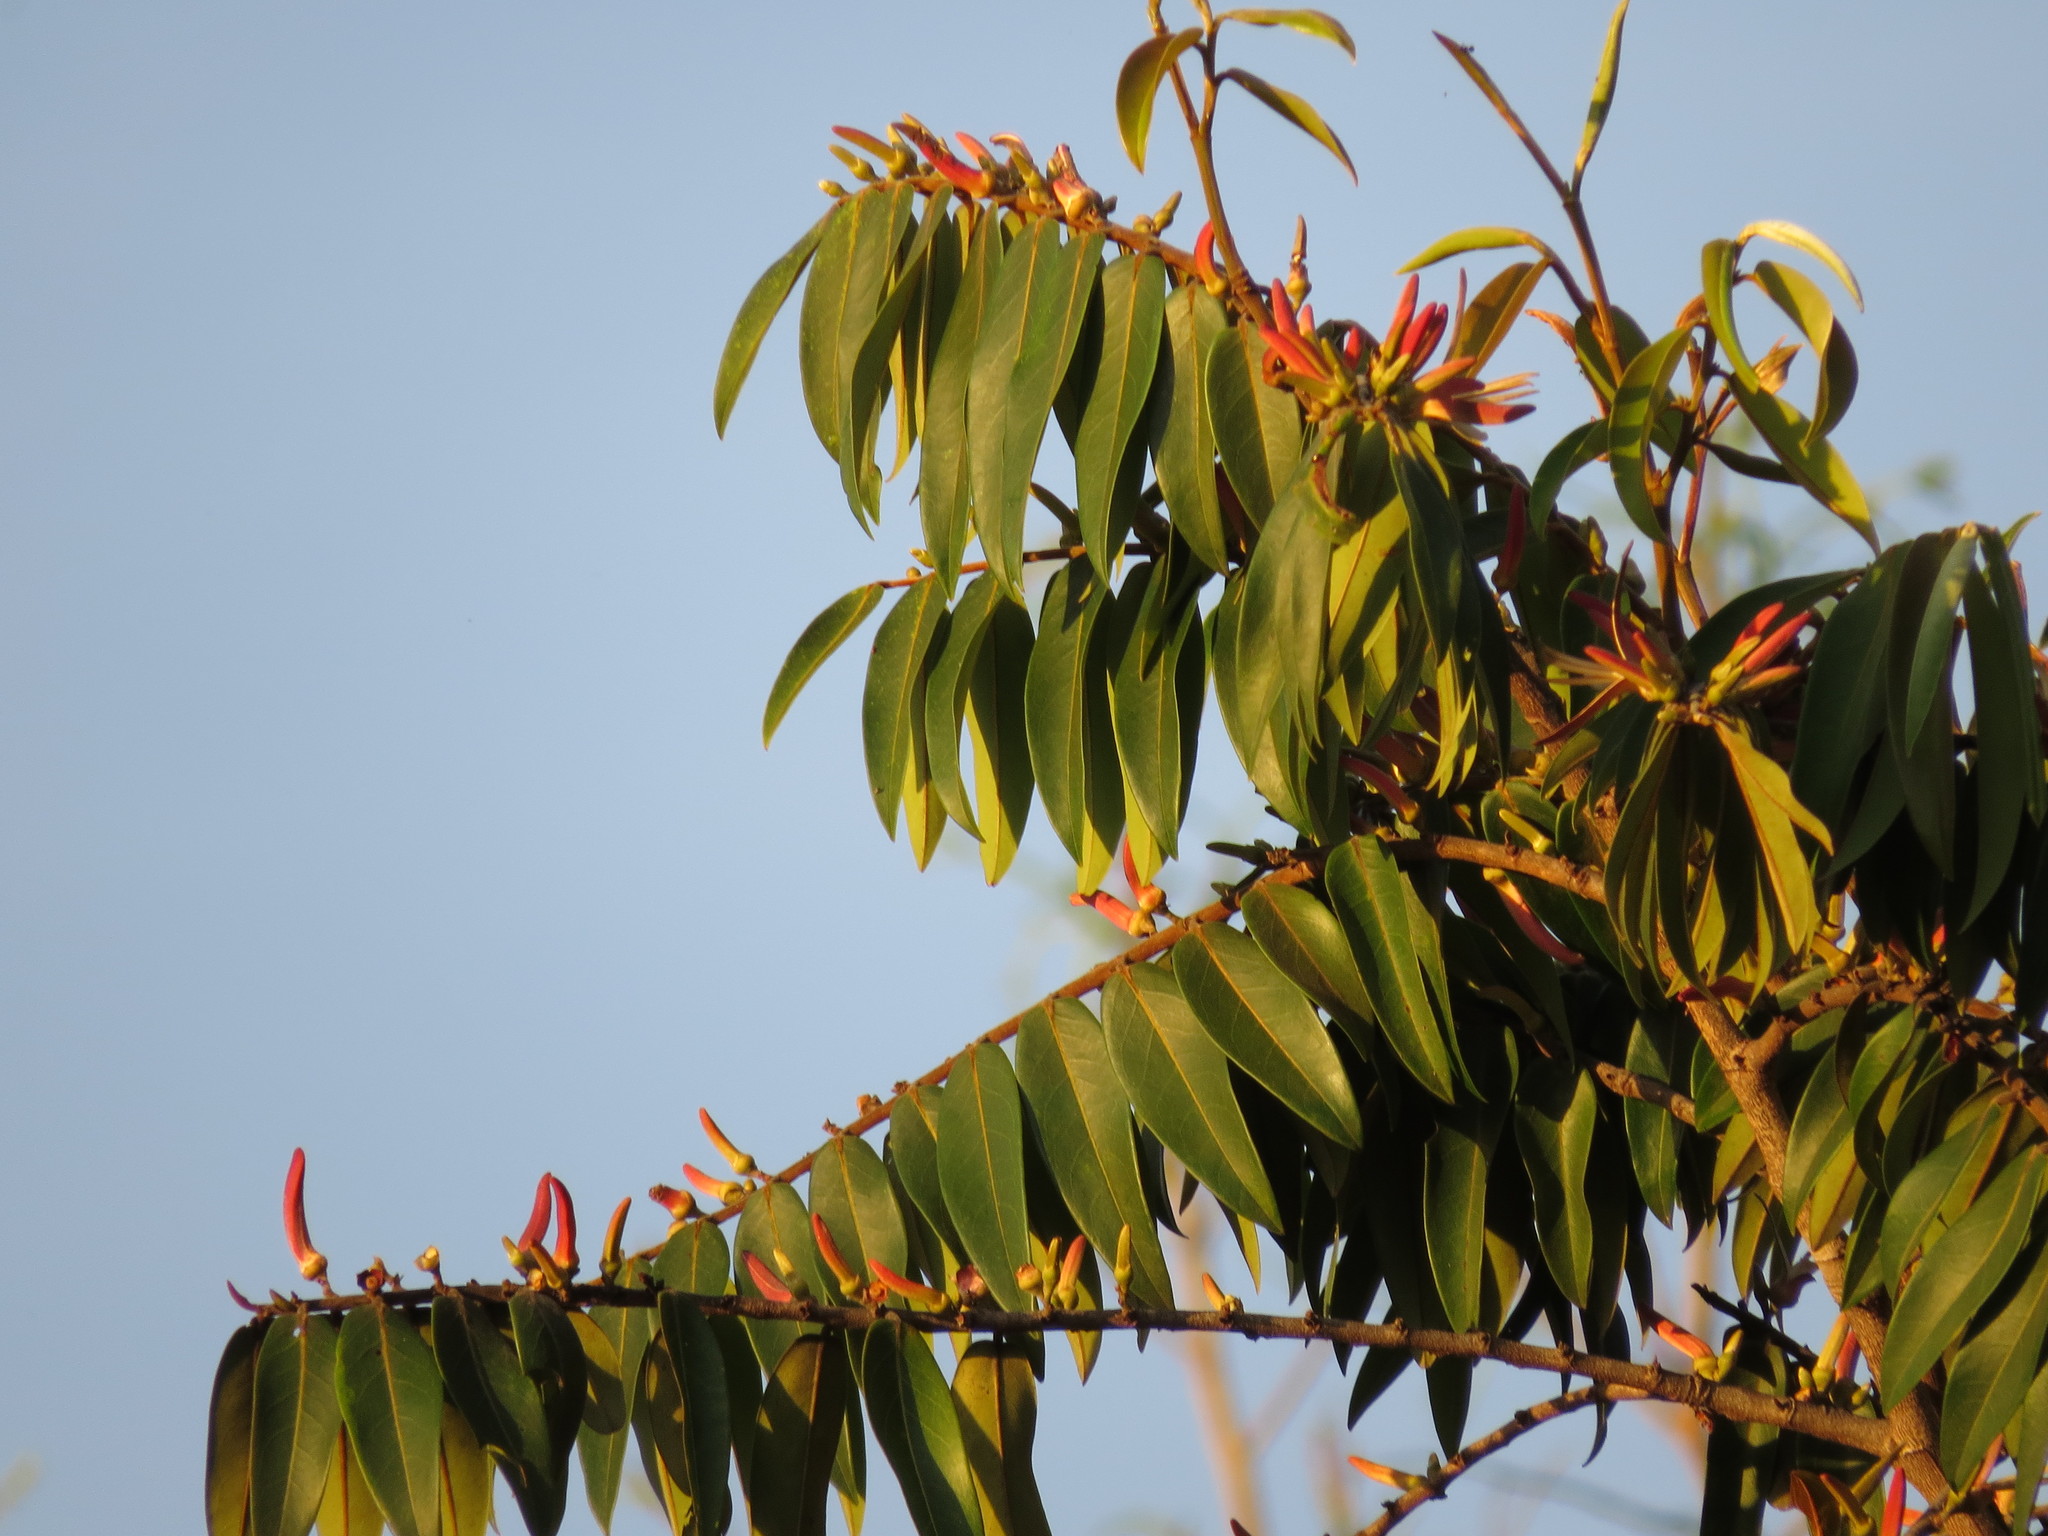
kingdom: Plantae
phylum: Tracheophyta
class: Magnoliopsida
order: Magnoliales
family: Annonaceae
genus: Xylopia
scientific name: Xylopia aromatica
